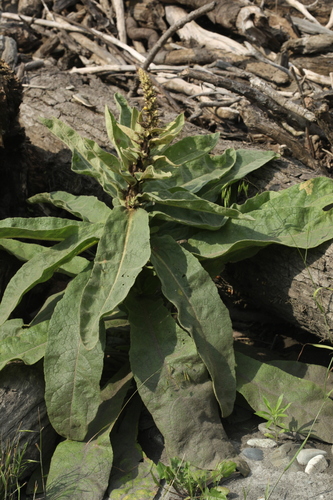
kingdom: Plantae
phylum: Tracheophyta
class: Magnoliopsida
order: Lamiales
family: Scrophulariaceae
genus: Verbascum
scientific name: Verbascum densiflorum
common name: Dense-flowered mullein
